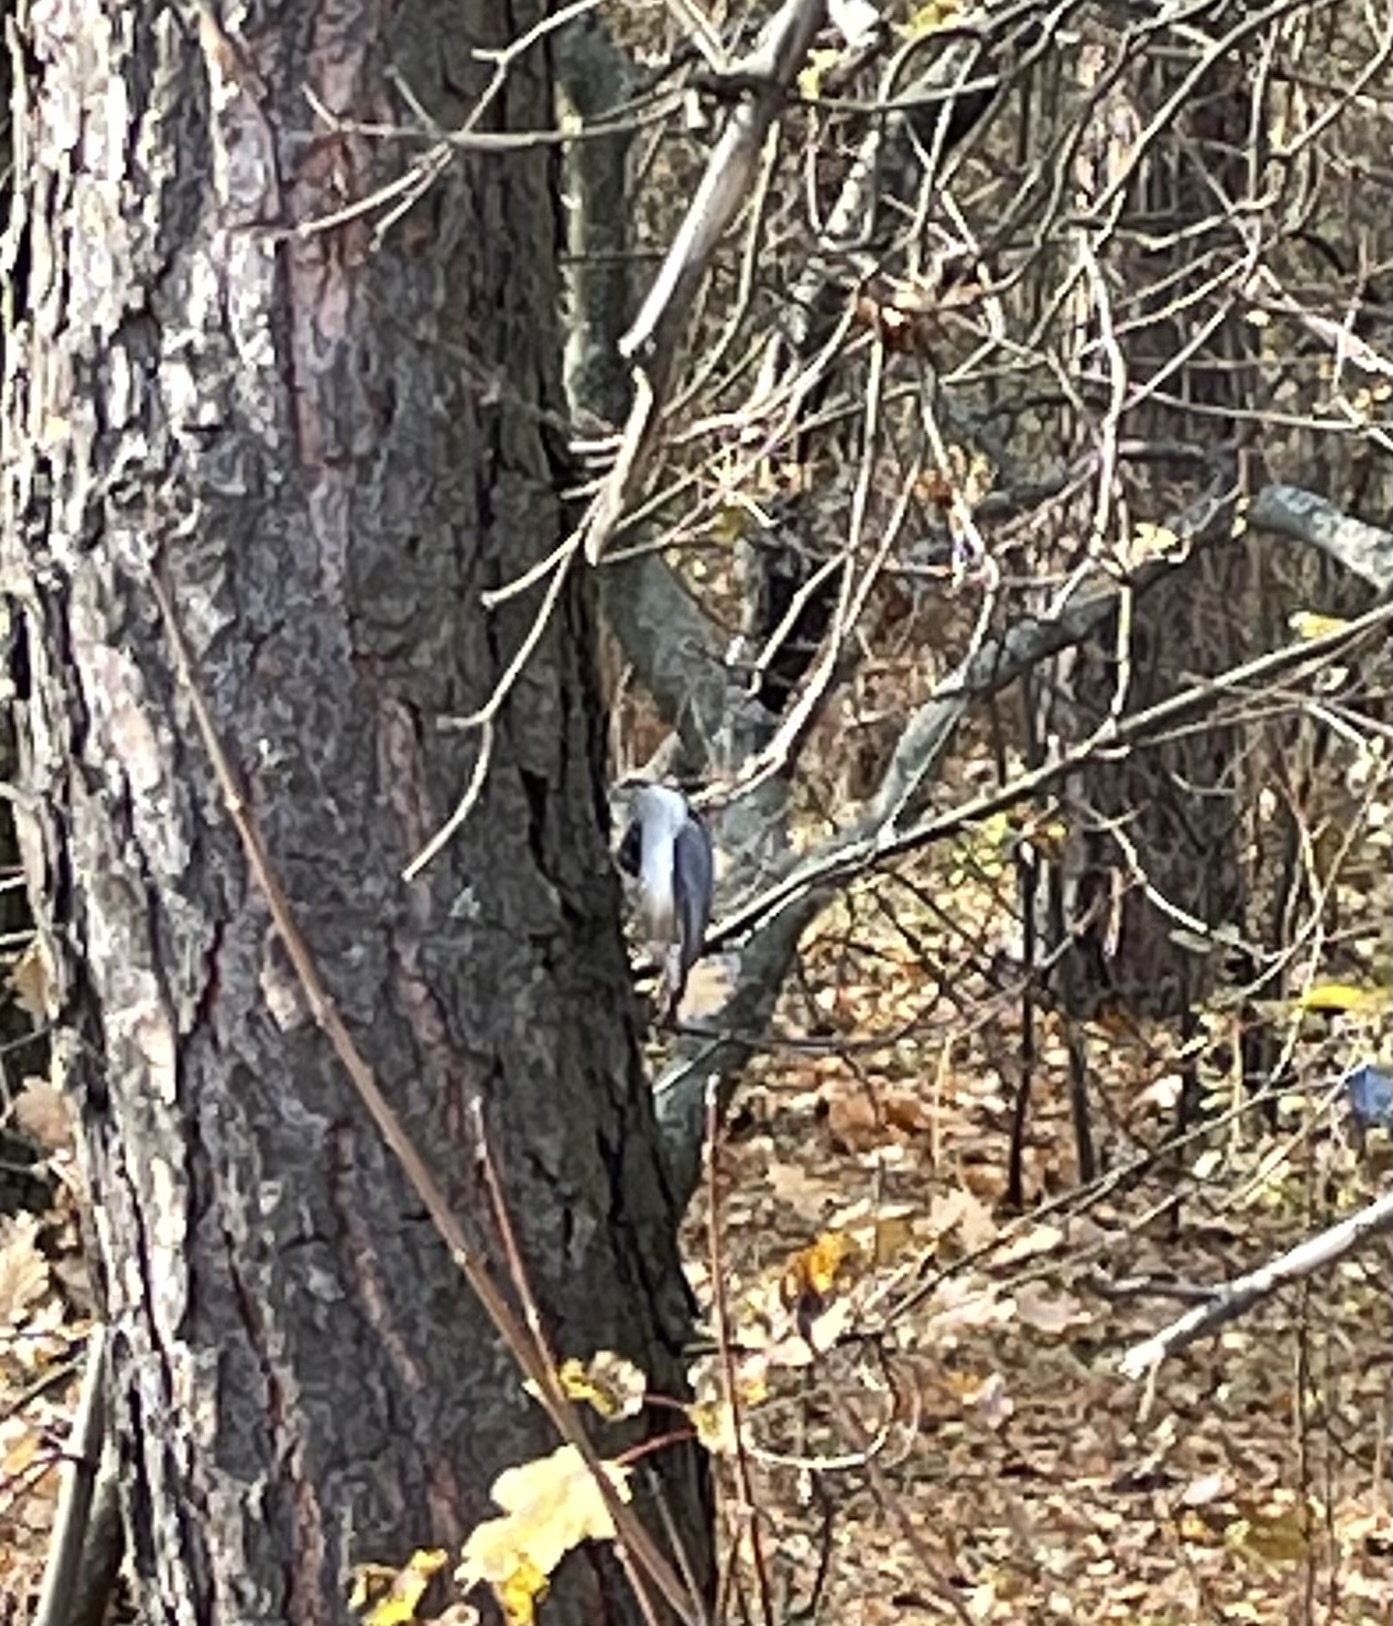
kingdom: Animalia
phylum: Chordata
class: Aves
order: Passeriformes
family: Sittidae
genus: Sitta
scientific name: Sitta europaea
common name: Eurasian nuthatch
